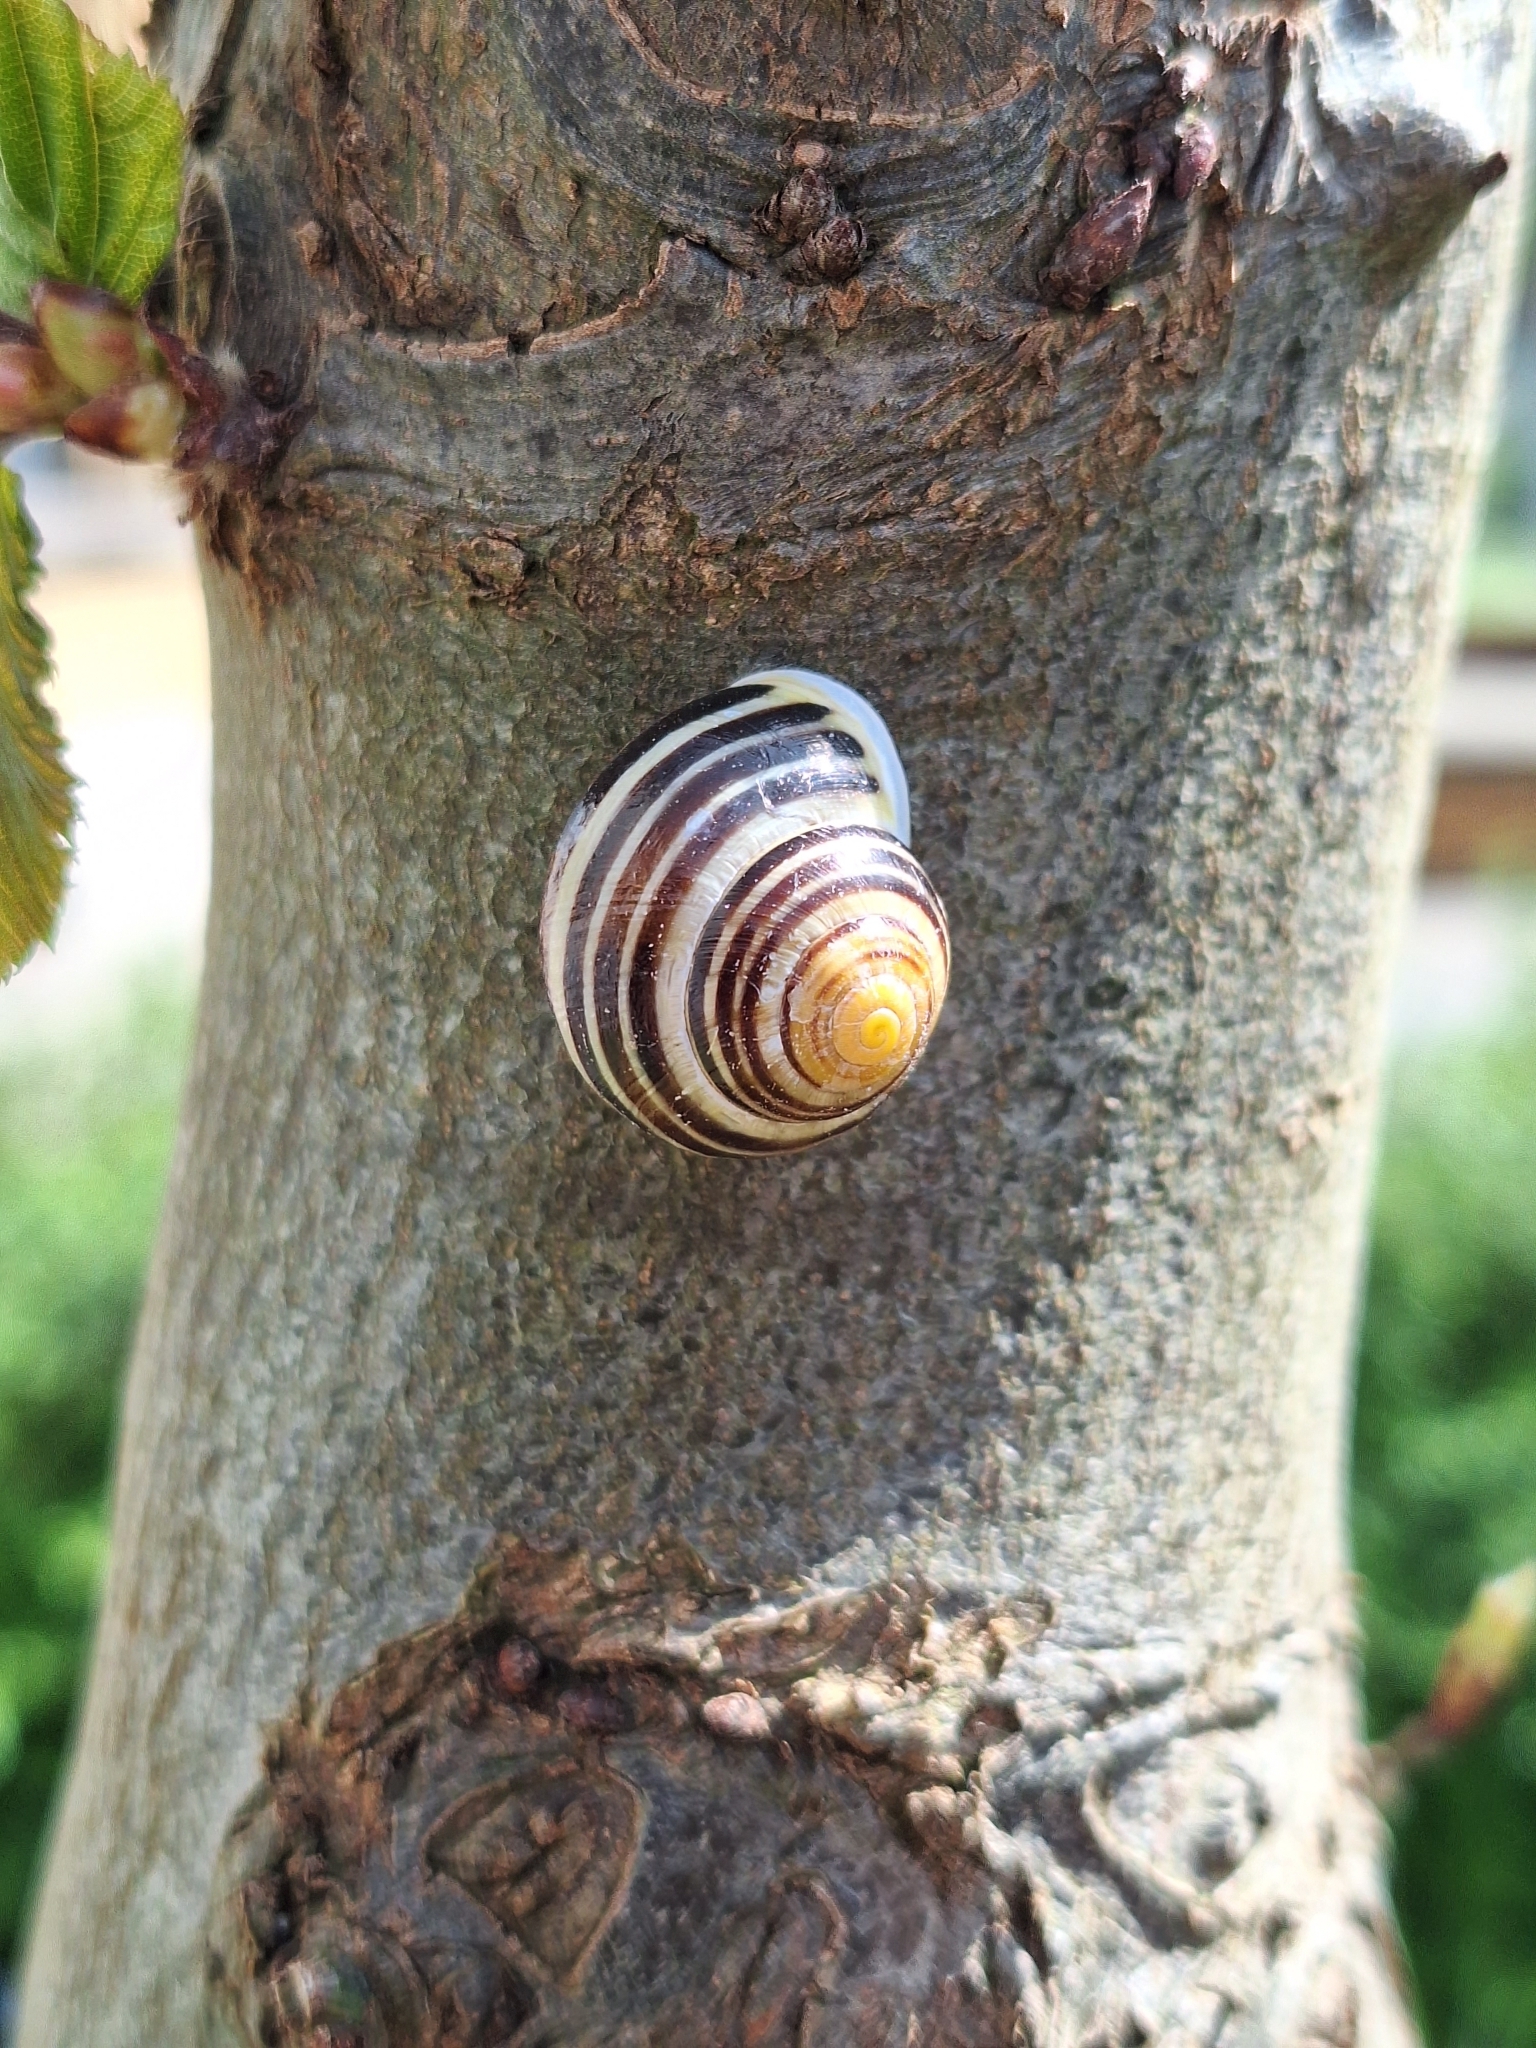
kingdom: Animalia
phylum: Mollusca
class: Gastropoda
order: Stylommatophora
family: Helicidae
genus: Cepaea
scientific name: Cepaea hortensis
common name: White-lip gardensnail
